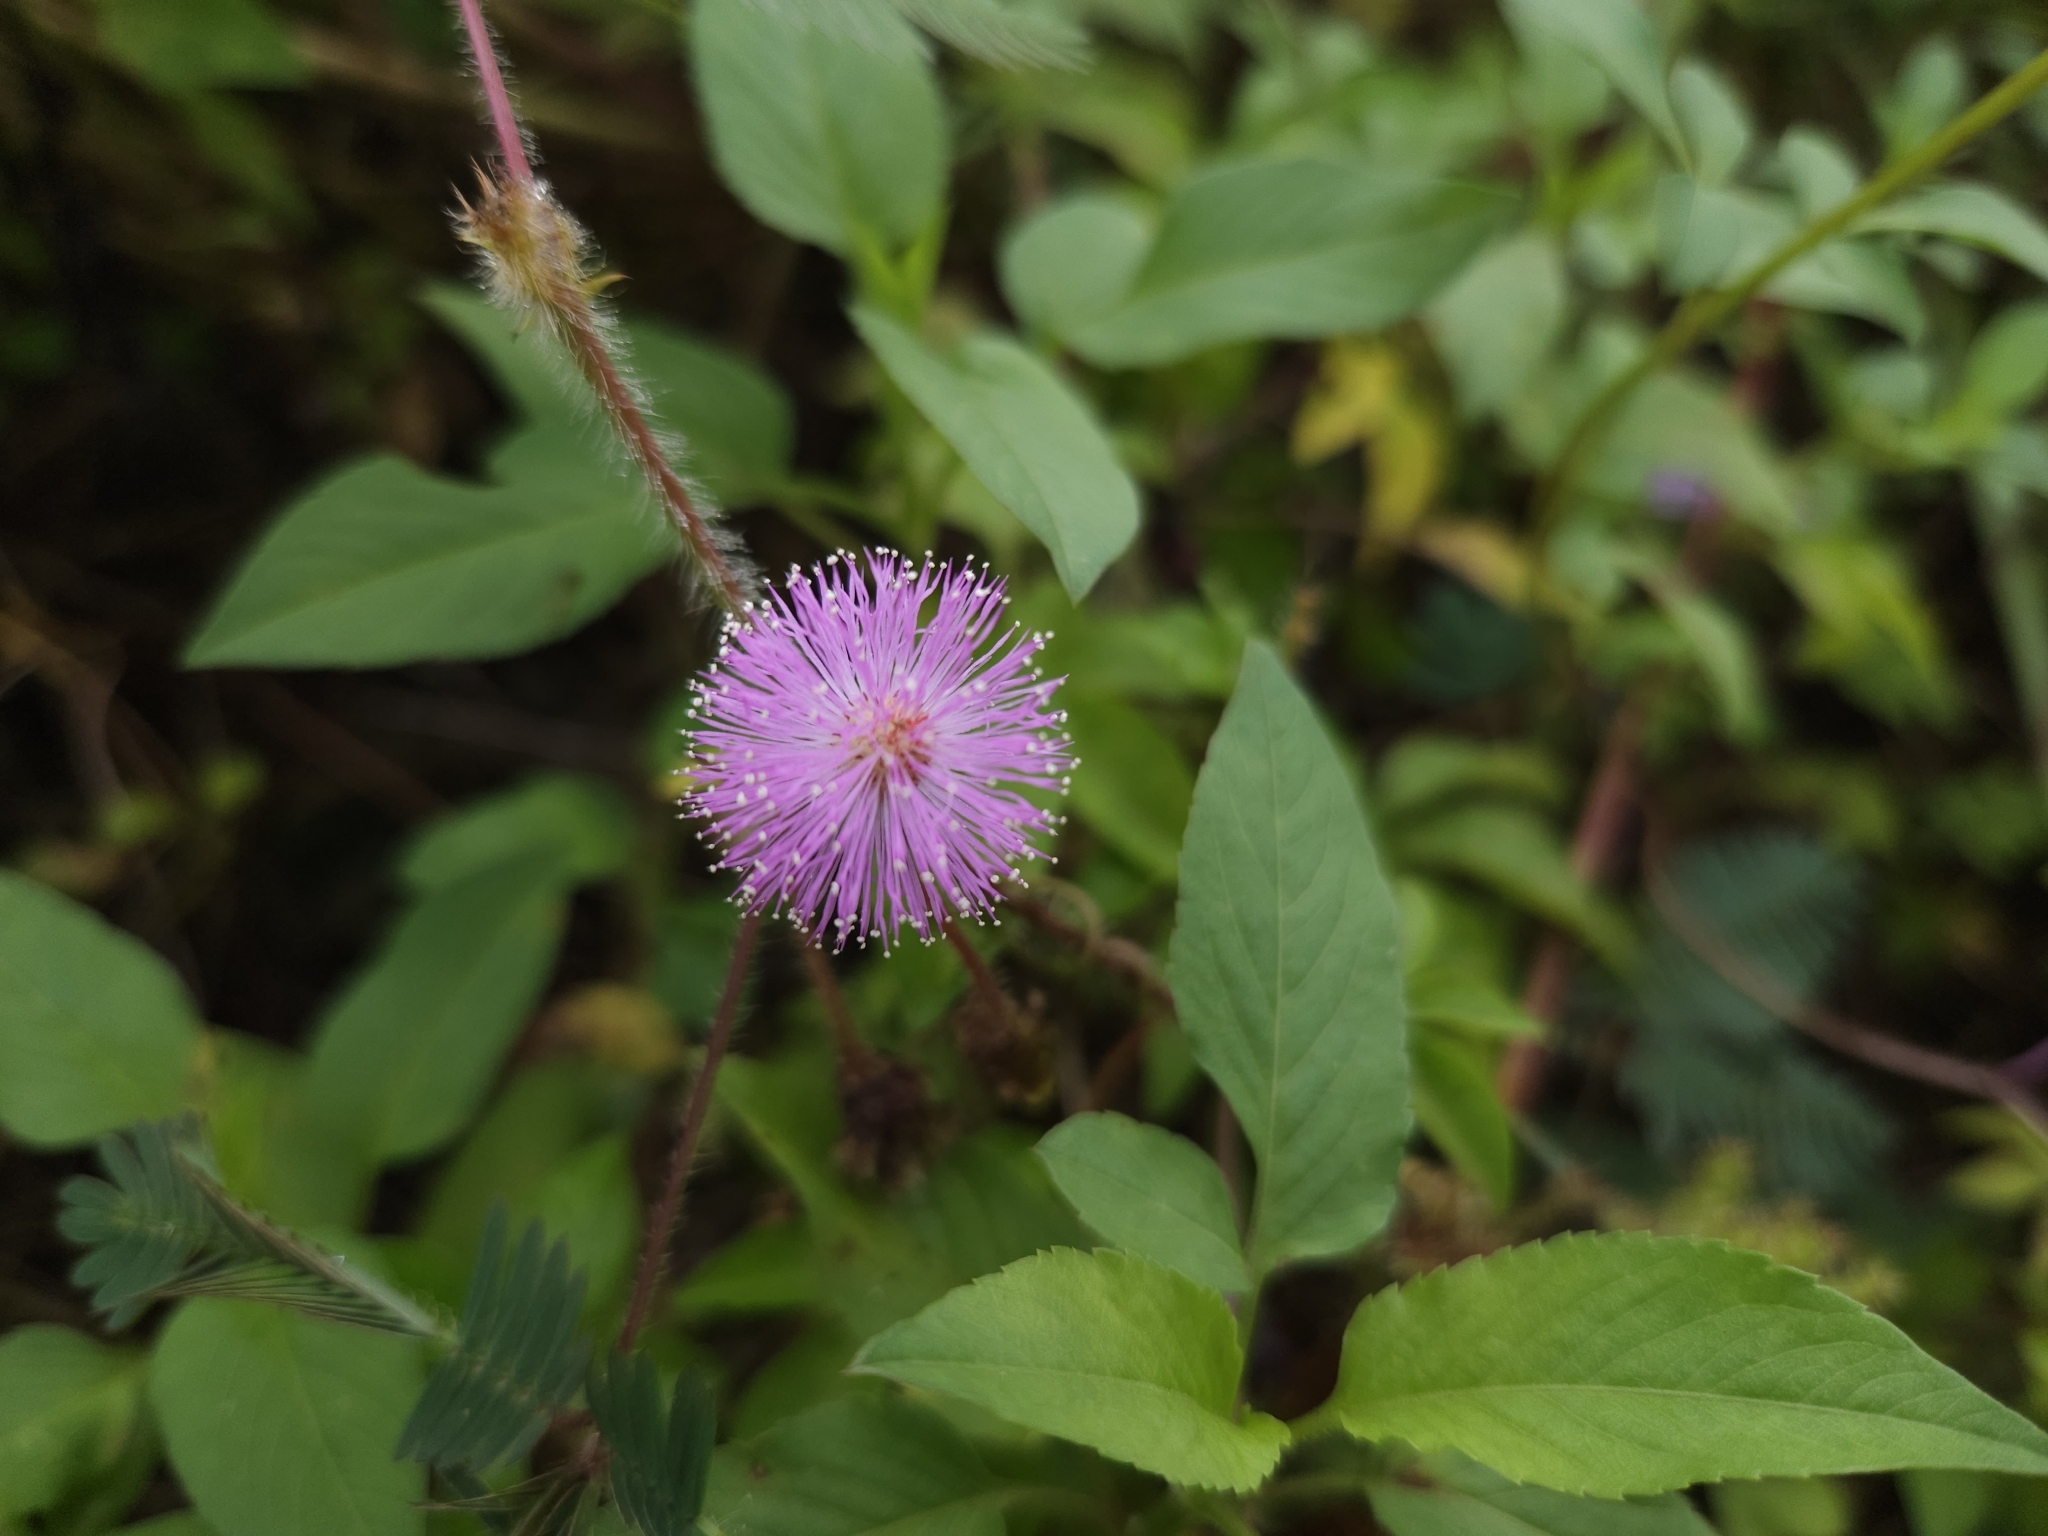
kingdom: Plantae
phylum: Tracheophyta
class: Magnoliopsida
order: Fabales
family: Fabaceae
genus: Mimosa
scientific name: Mimosa pudica
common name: Sensitive plant
